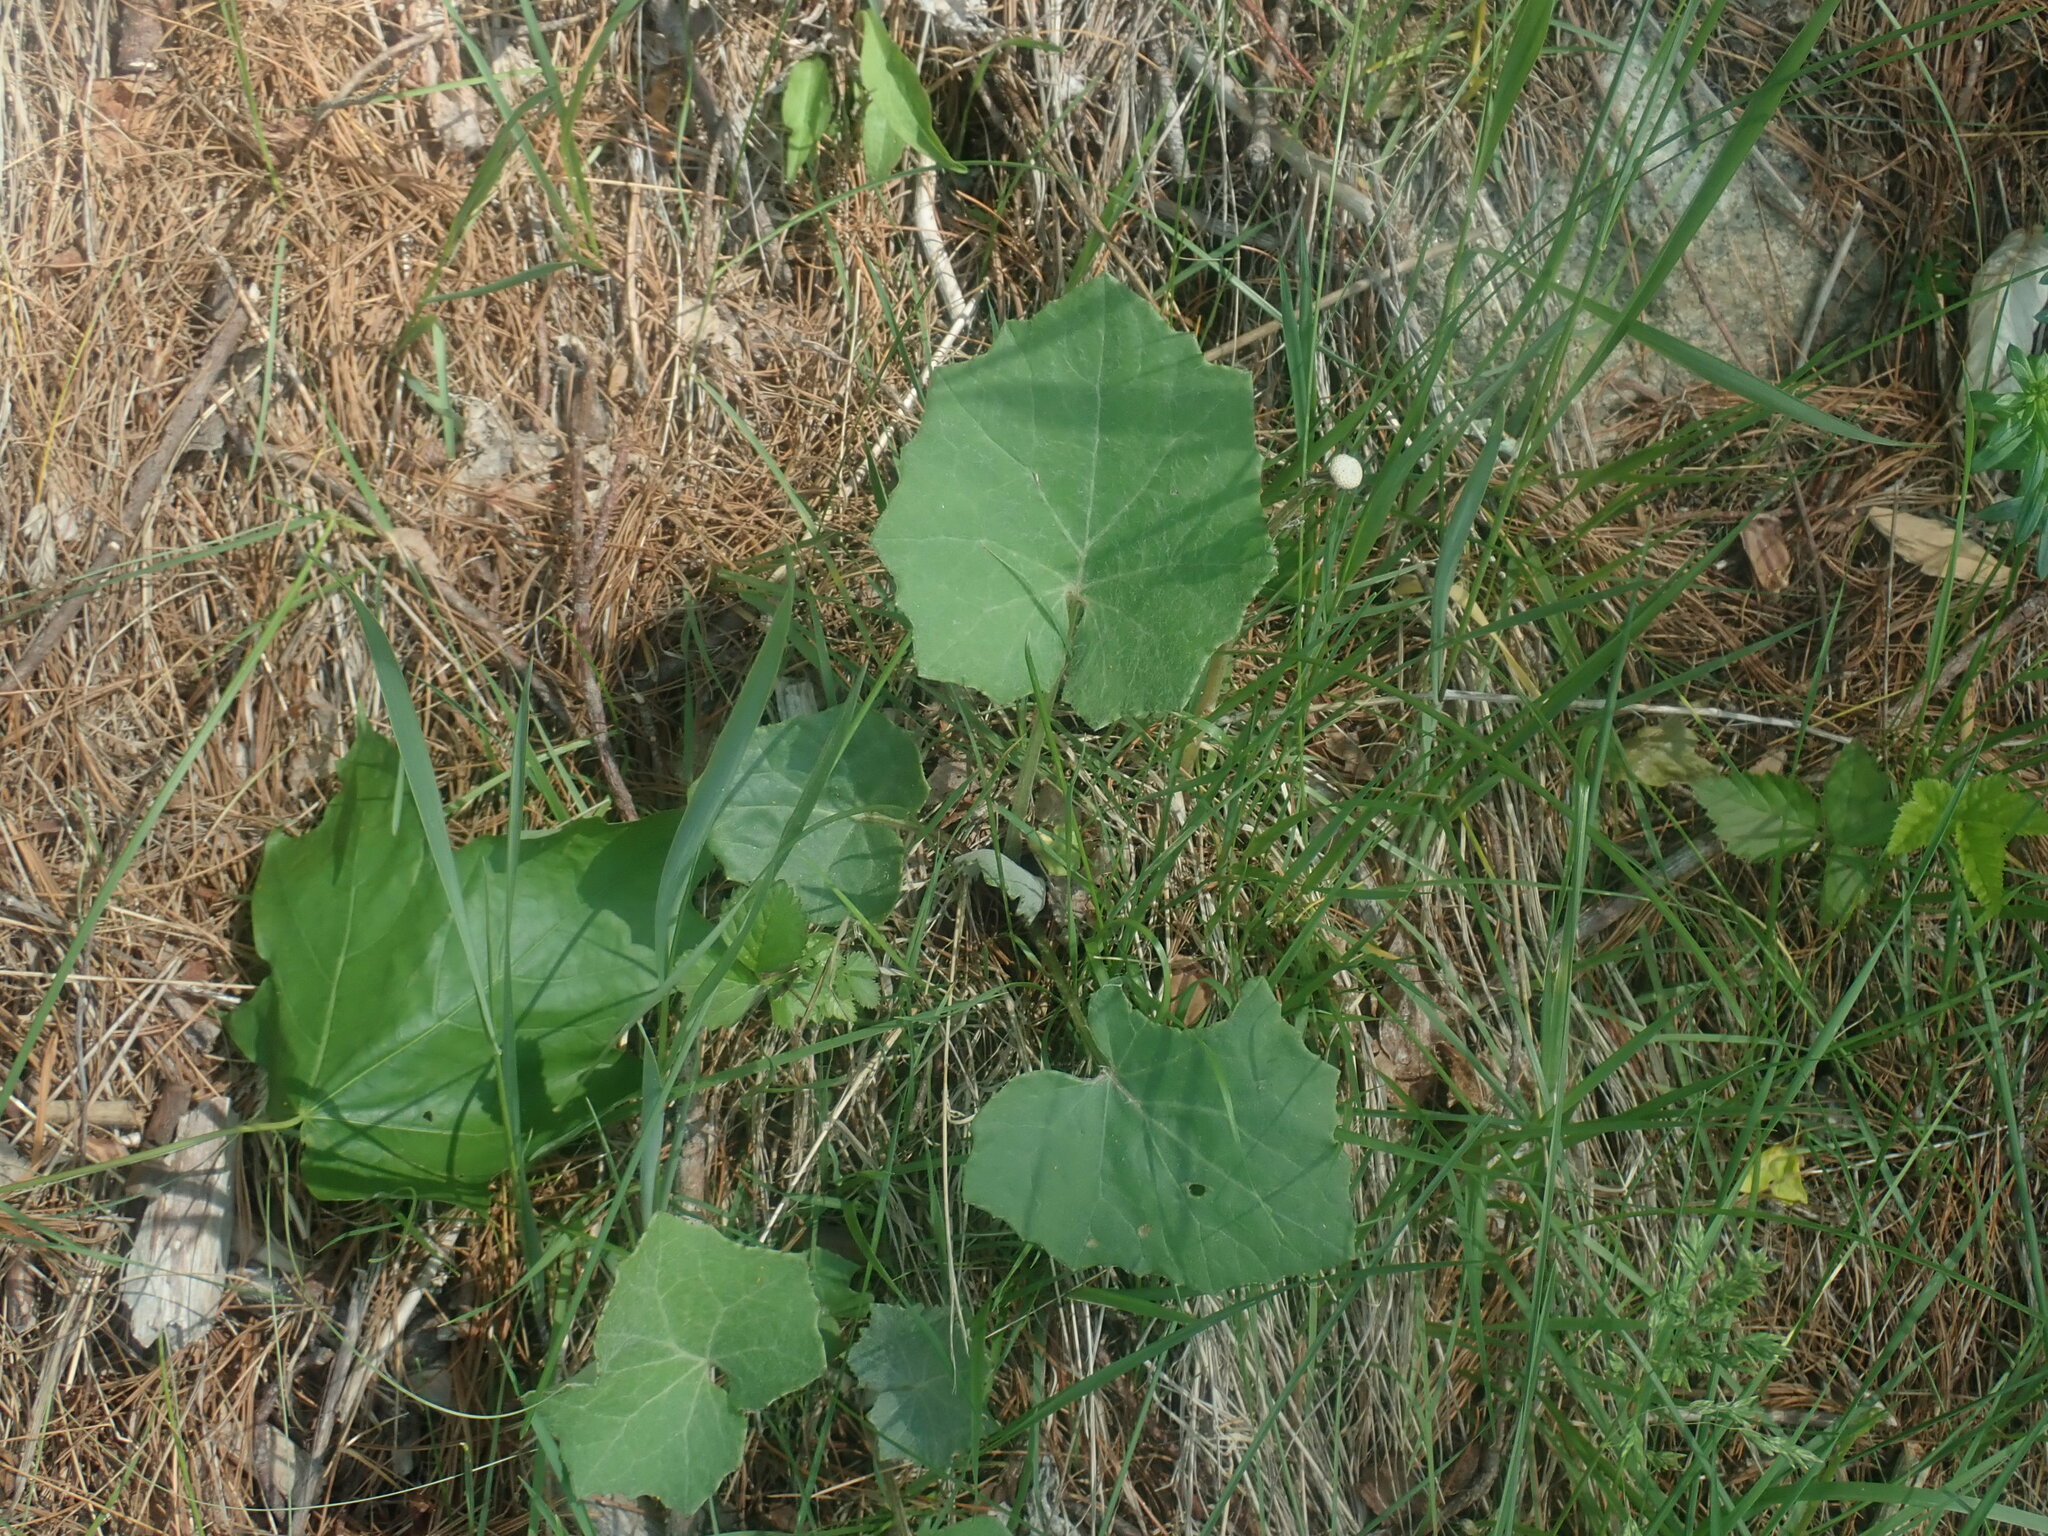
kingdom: Plantae
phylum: Tracheophyta
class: Magnoliopsida
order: Asterales
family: Asteraceae
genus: Tussilago
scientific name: Tussilago farfara
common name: Coltsfoot
